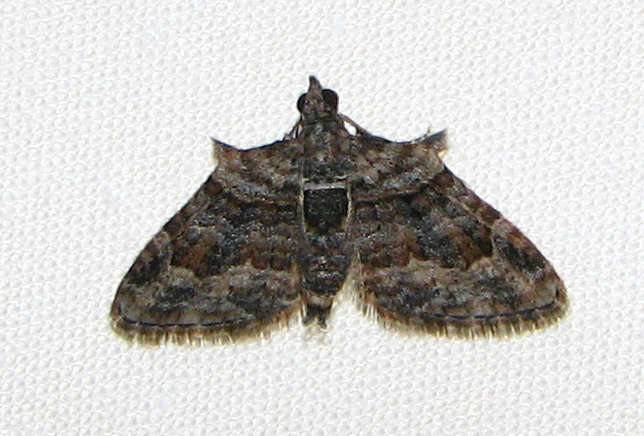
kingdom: Animalia
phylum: Arthropoda
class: Insecta
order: Lepidoptera
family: Geometridae
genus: Phrissogonus
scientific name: Phrissogonus laticostata
